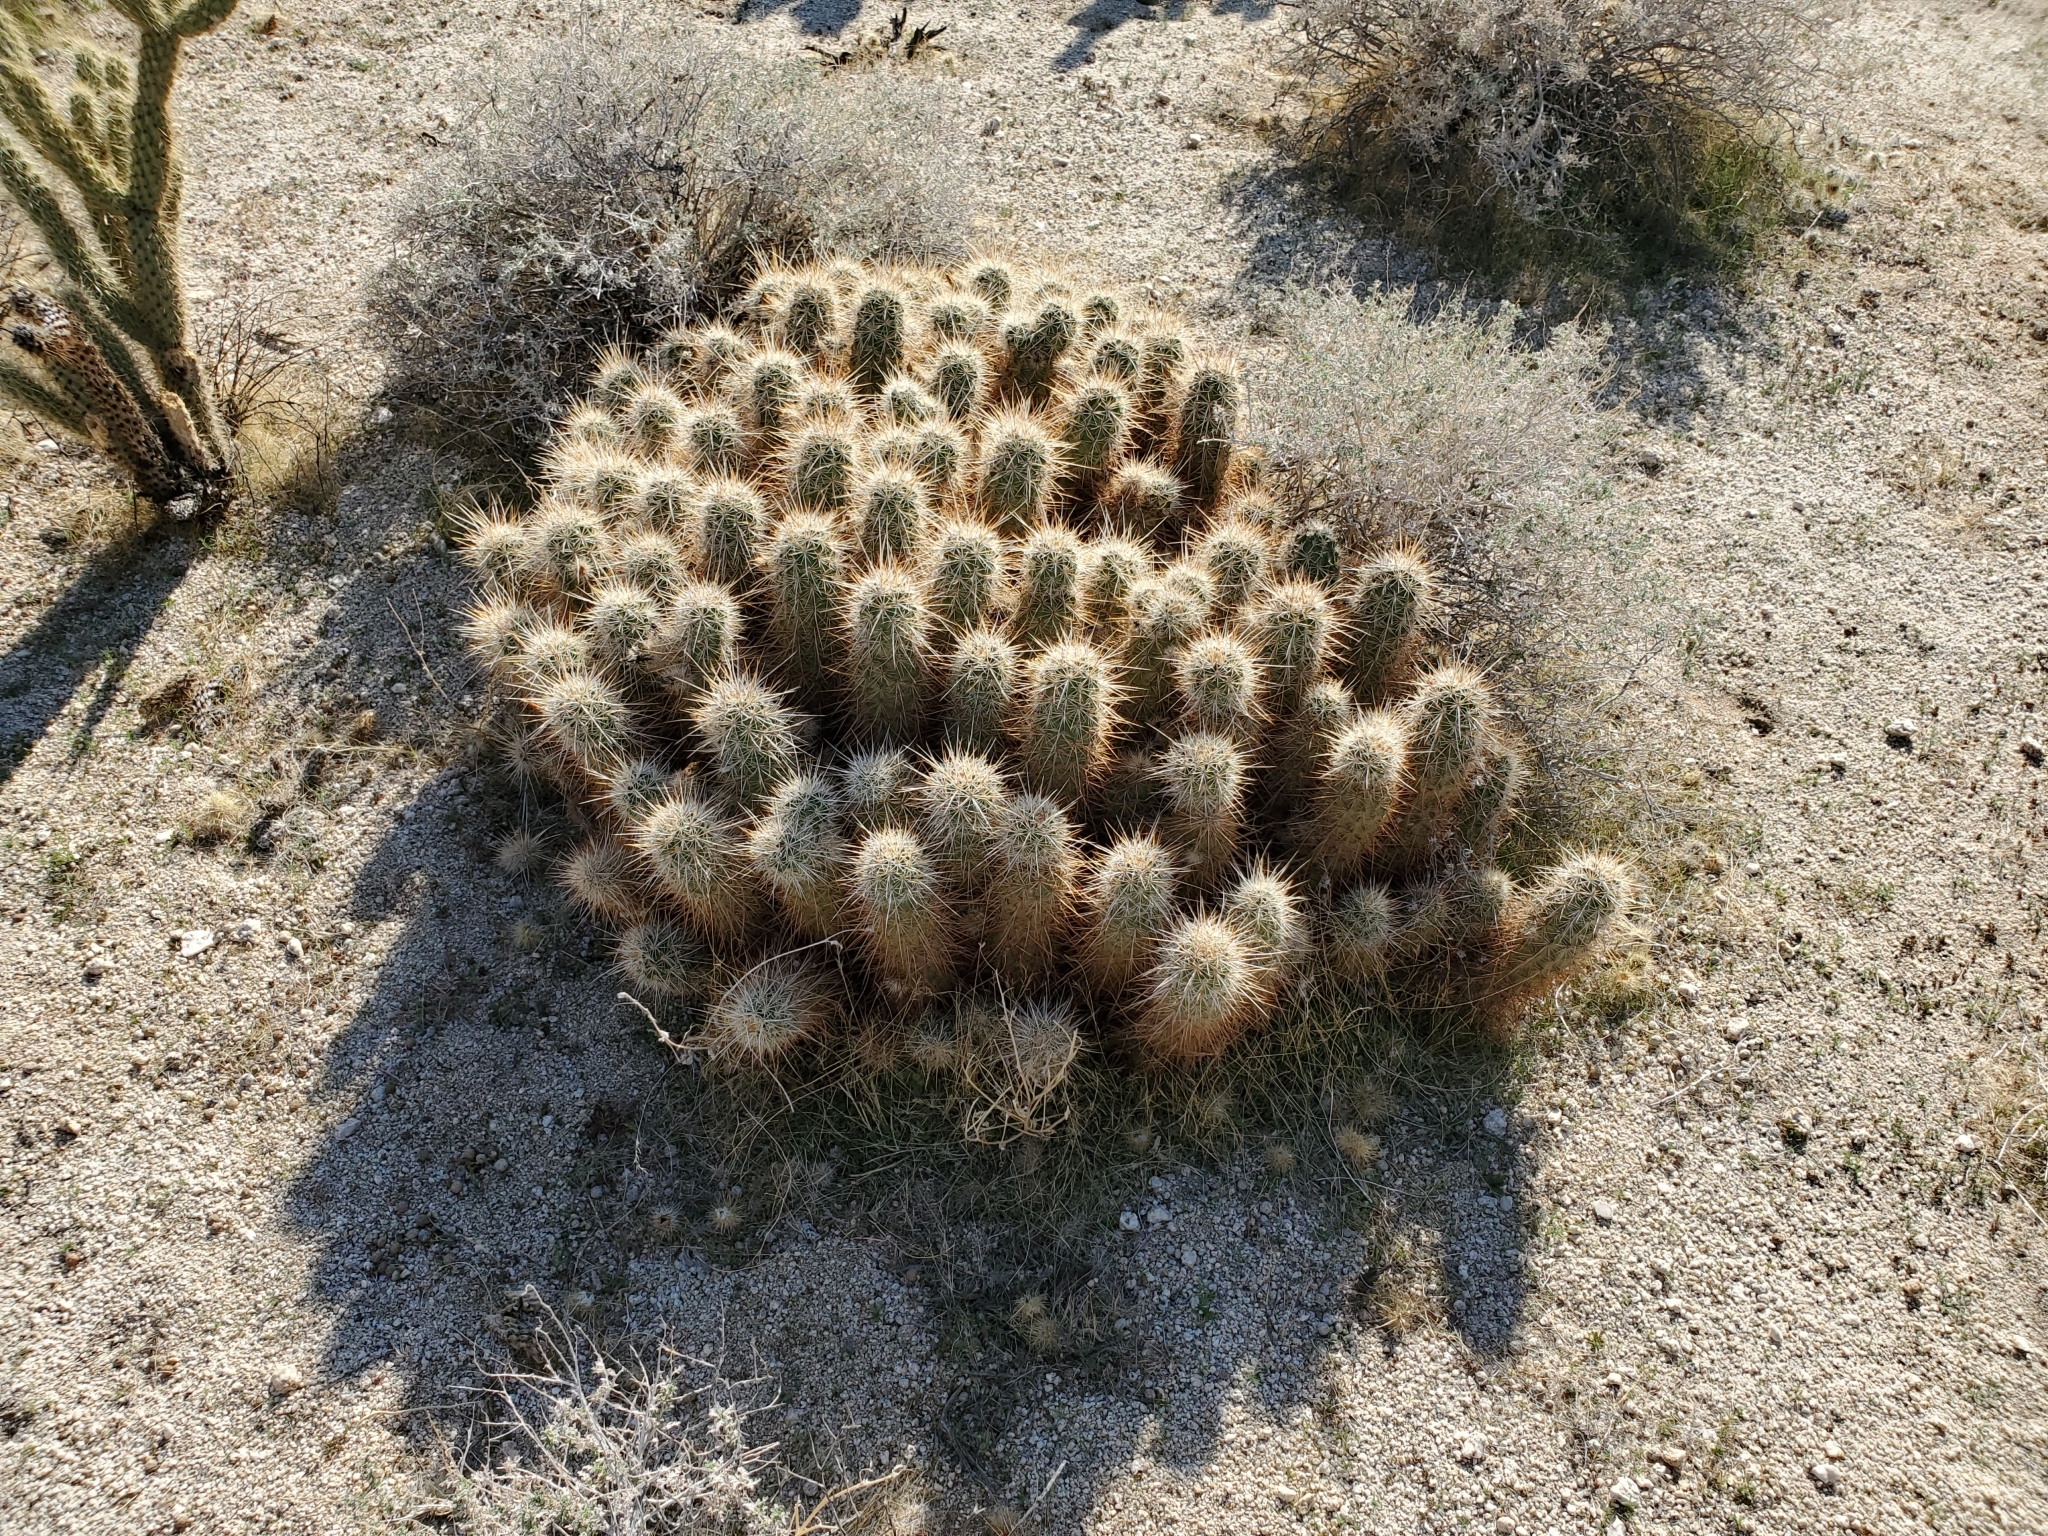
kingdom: Plantae
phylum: Tracheophyta
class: Magnoliopsida
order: Caryophyllales
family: Cactaceae
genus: Echinocereus
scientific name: Echinocereus engelmannii
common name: Engelmann's hedgehog cactus
